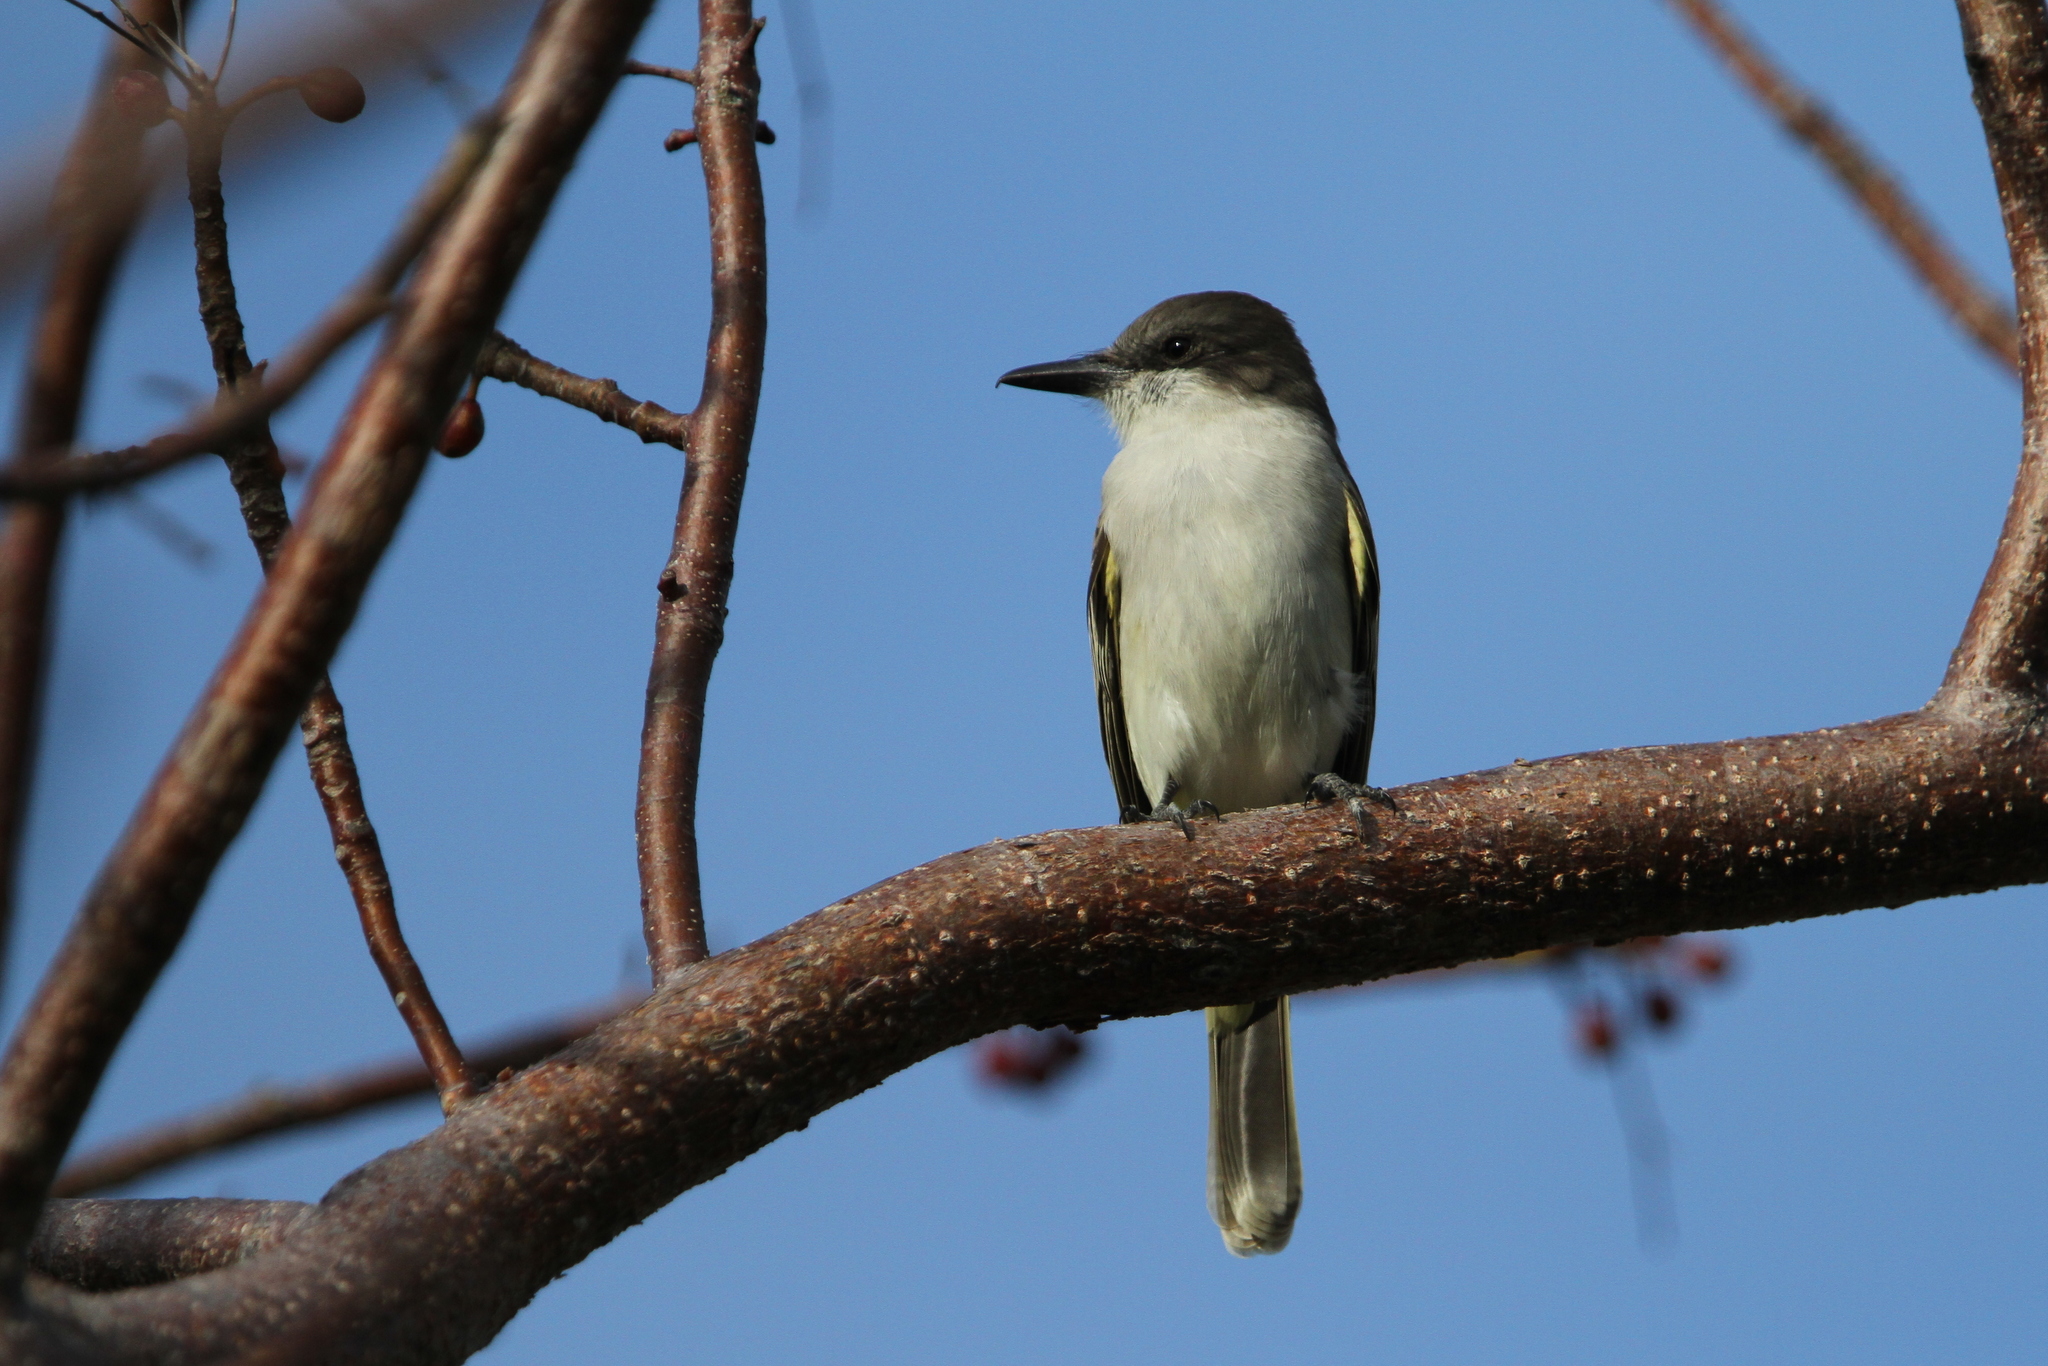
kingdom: Animalia
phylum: Chordata
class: Aves
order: Passeriformes
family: Tyrannidae
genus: Tyrannus
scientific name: Tyrannus caudifasciatus
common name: Loggerhead kingbird
